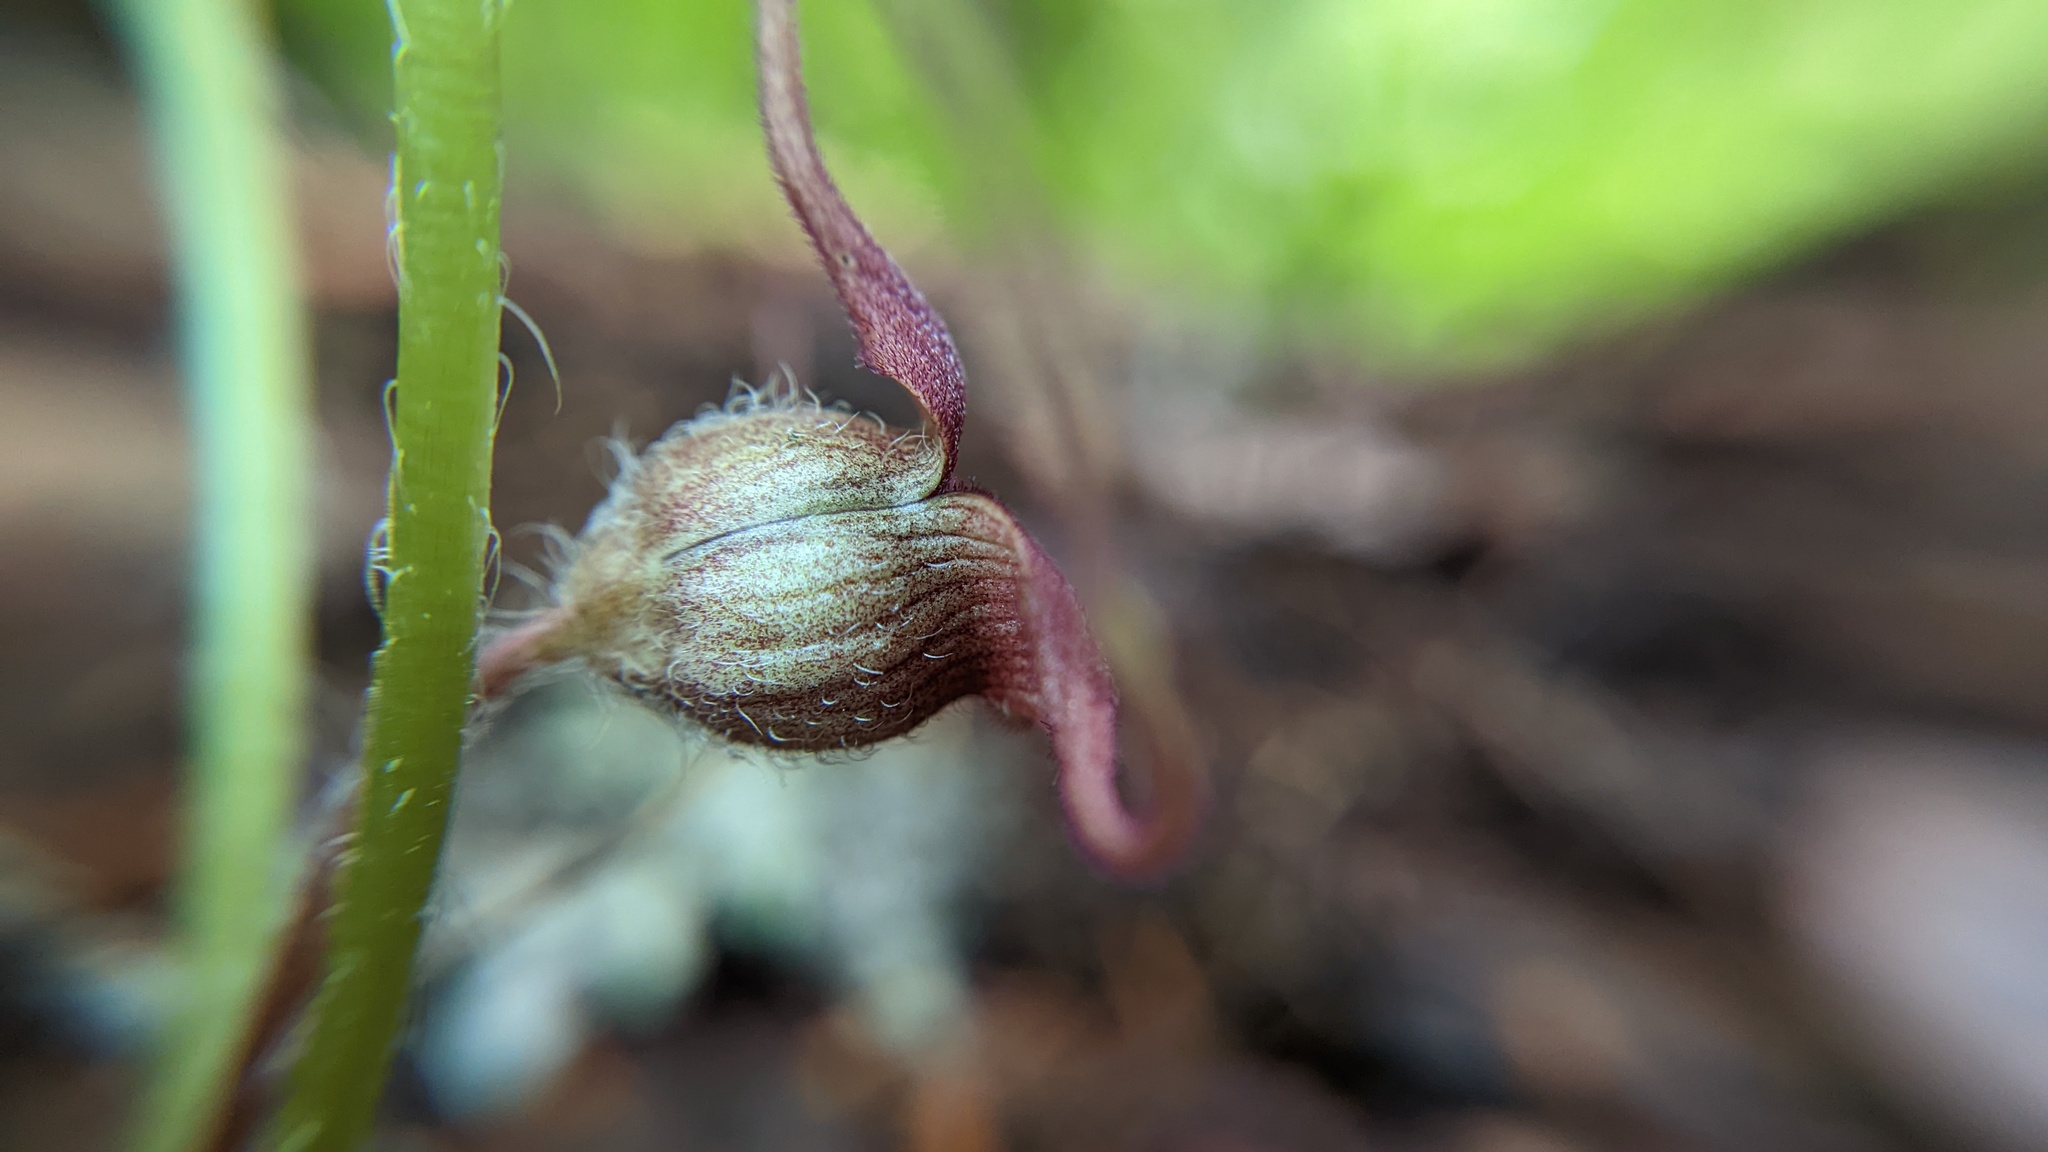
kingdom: Plantae
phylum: Tracheophyta
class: Magnoliopsida
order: Piperales
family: Aristolochiaceae
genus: Asarum
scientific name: Asarum caudatum
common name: Wild ginger
